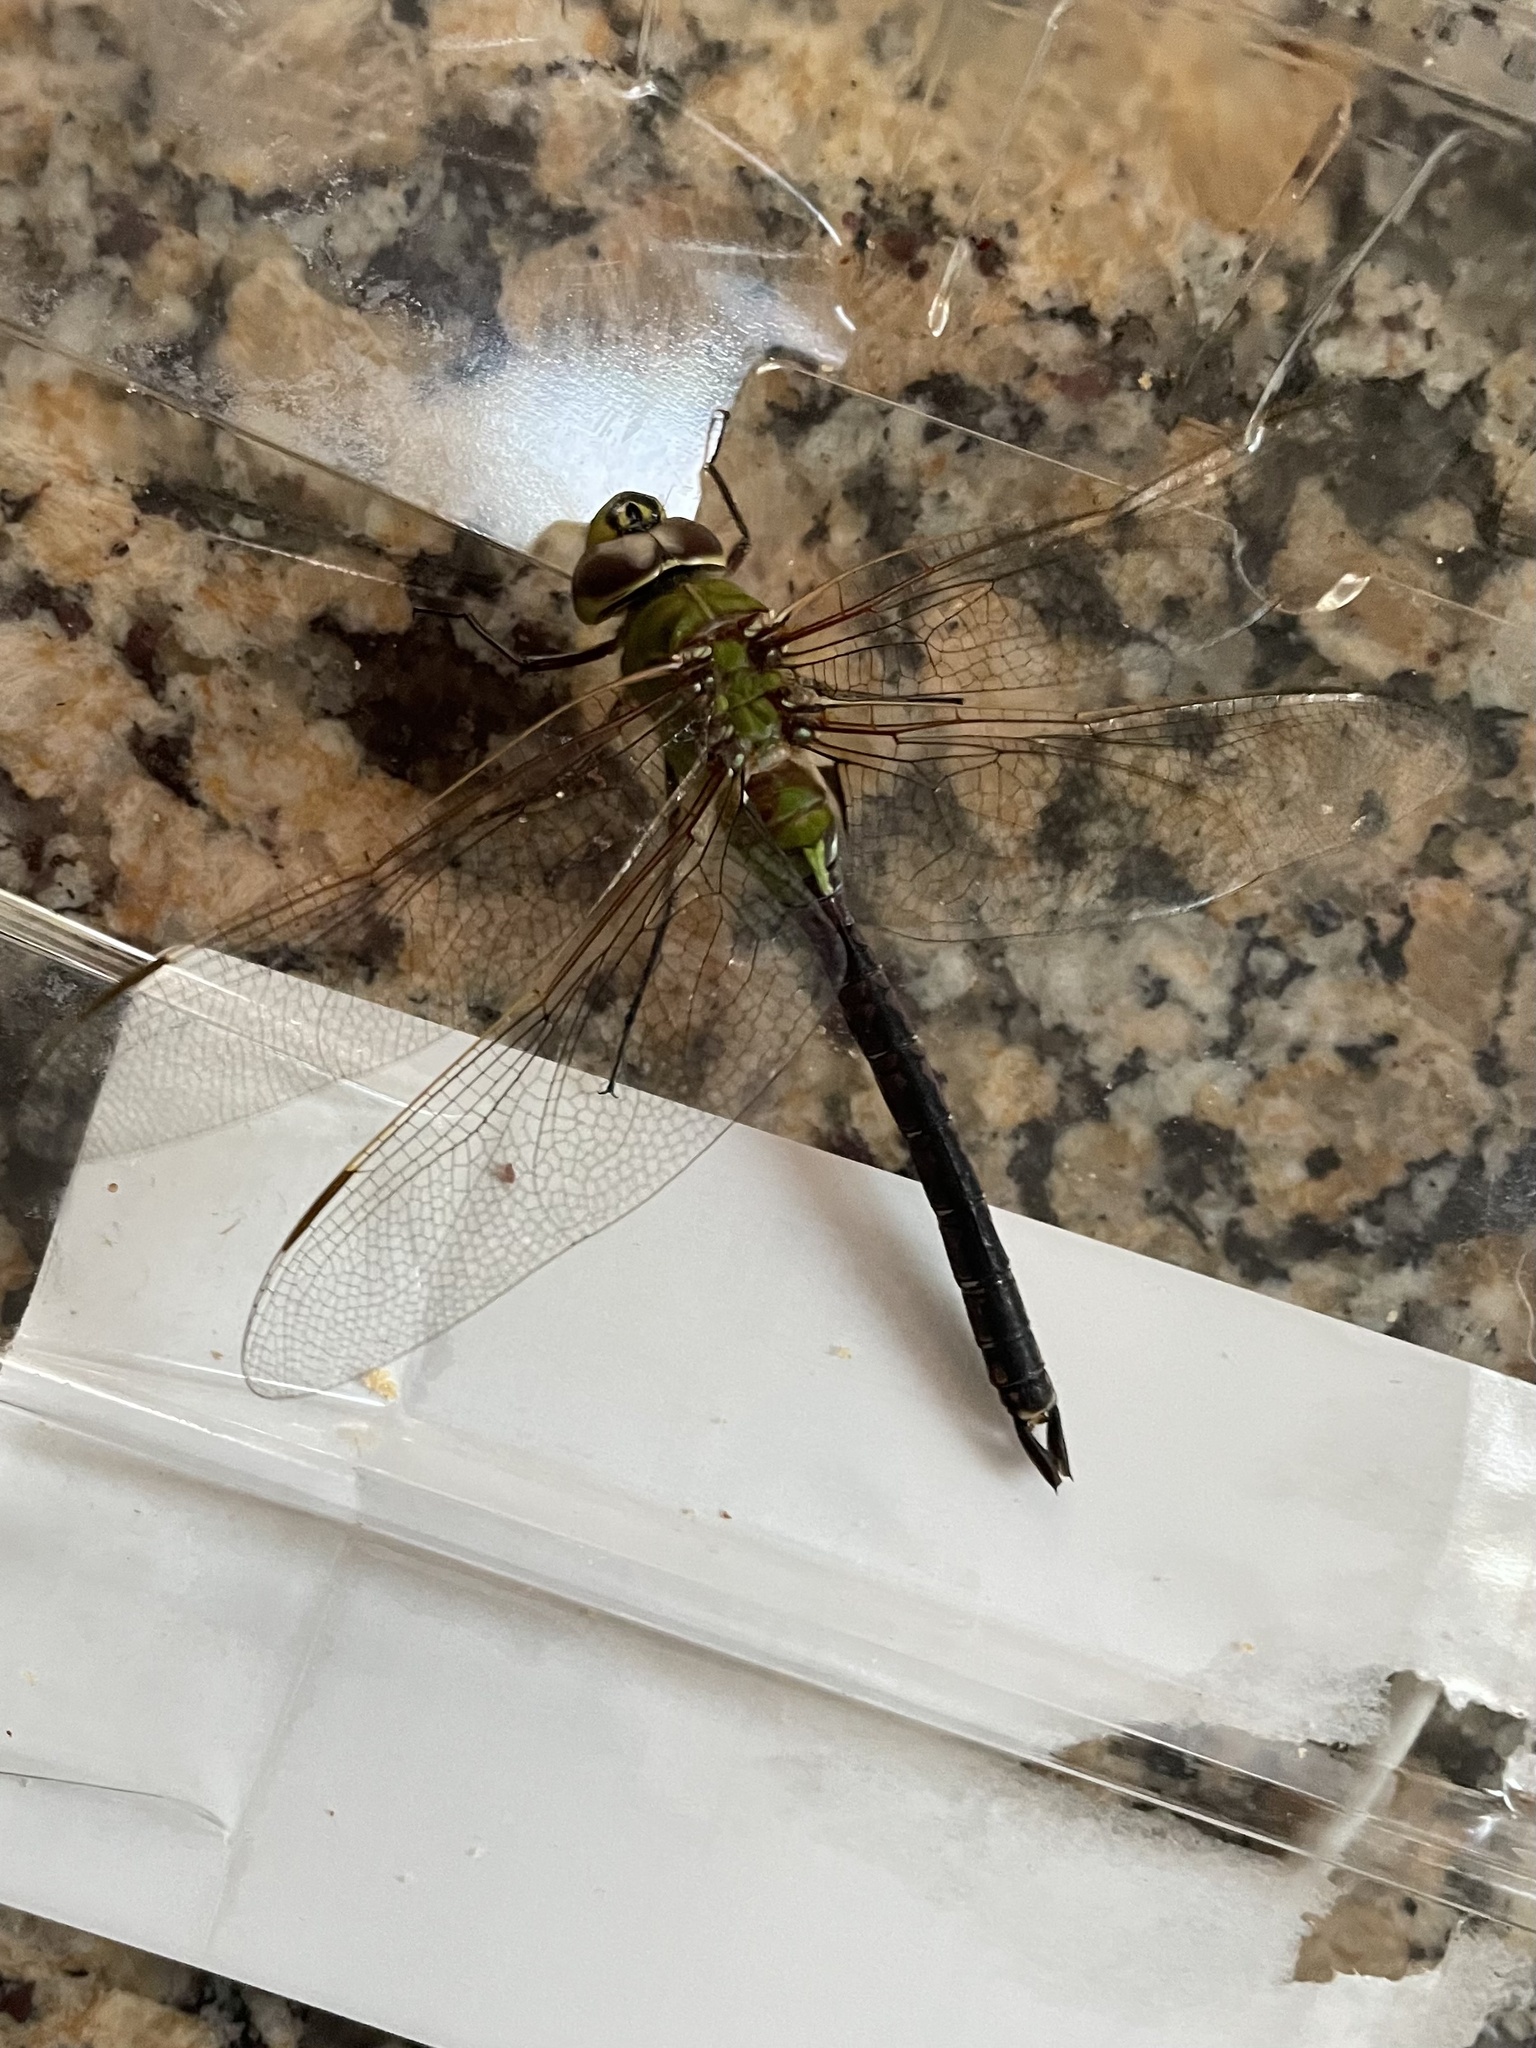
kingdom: Animalia
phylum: Arthropoda
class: Insecta
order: Odonata
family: Aeshnidae
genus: Anax
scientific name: Anax junius
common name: Common green darner
